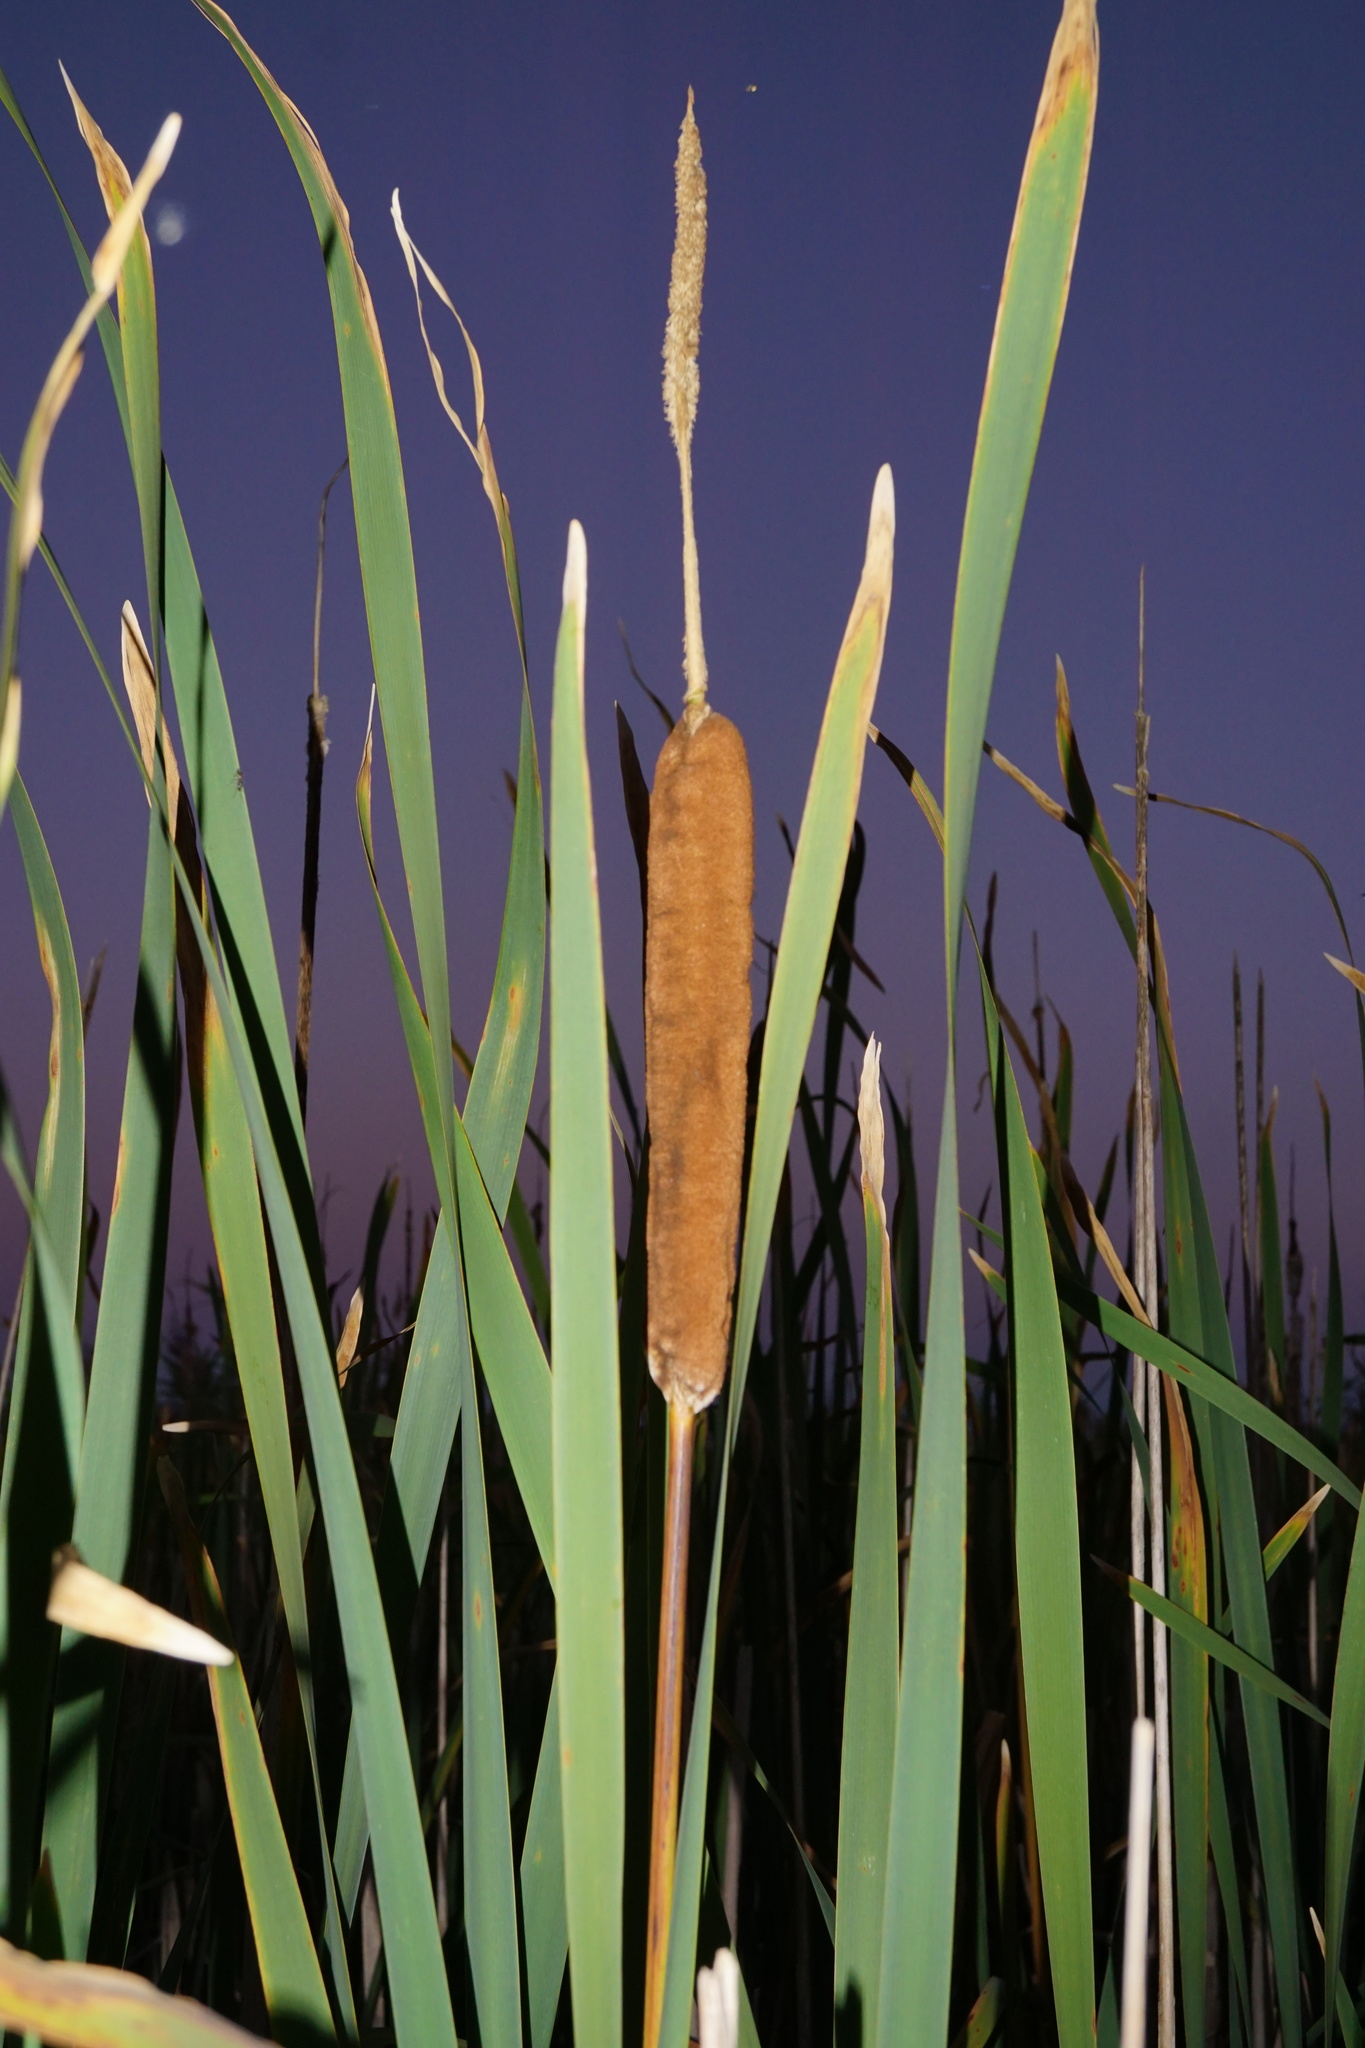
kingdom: Plantae
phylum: Tracheophyta
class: Liliopsida
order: Poales
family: Typhaceae
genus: Typha
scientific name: Typha latifolia
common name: Broadleaf cattail
